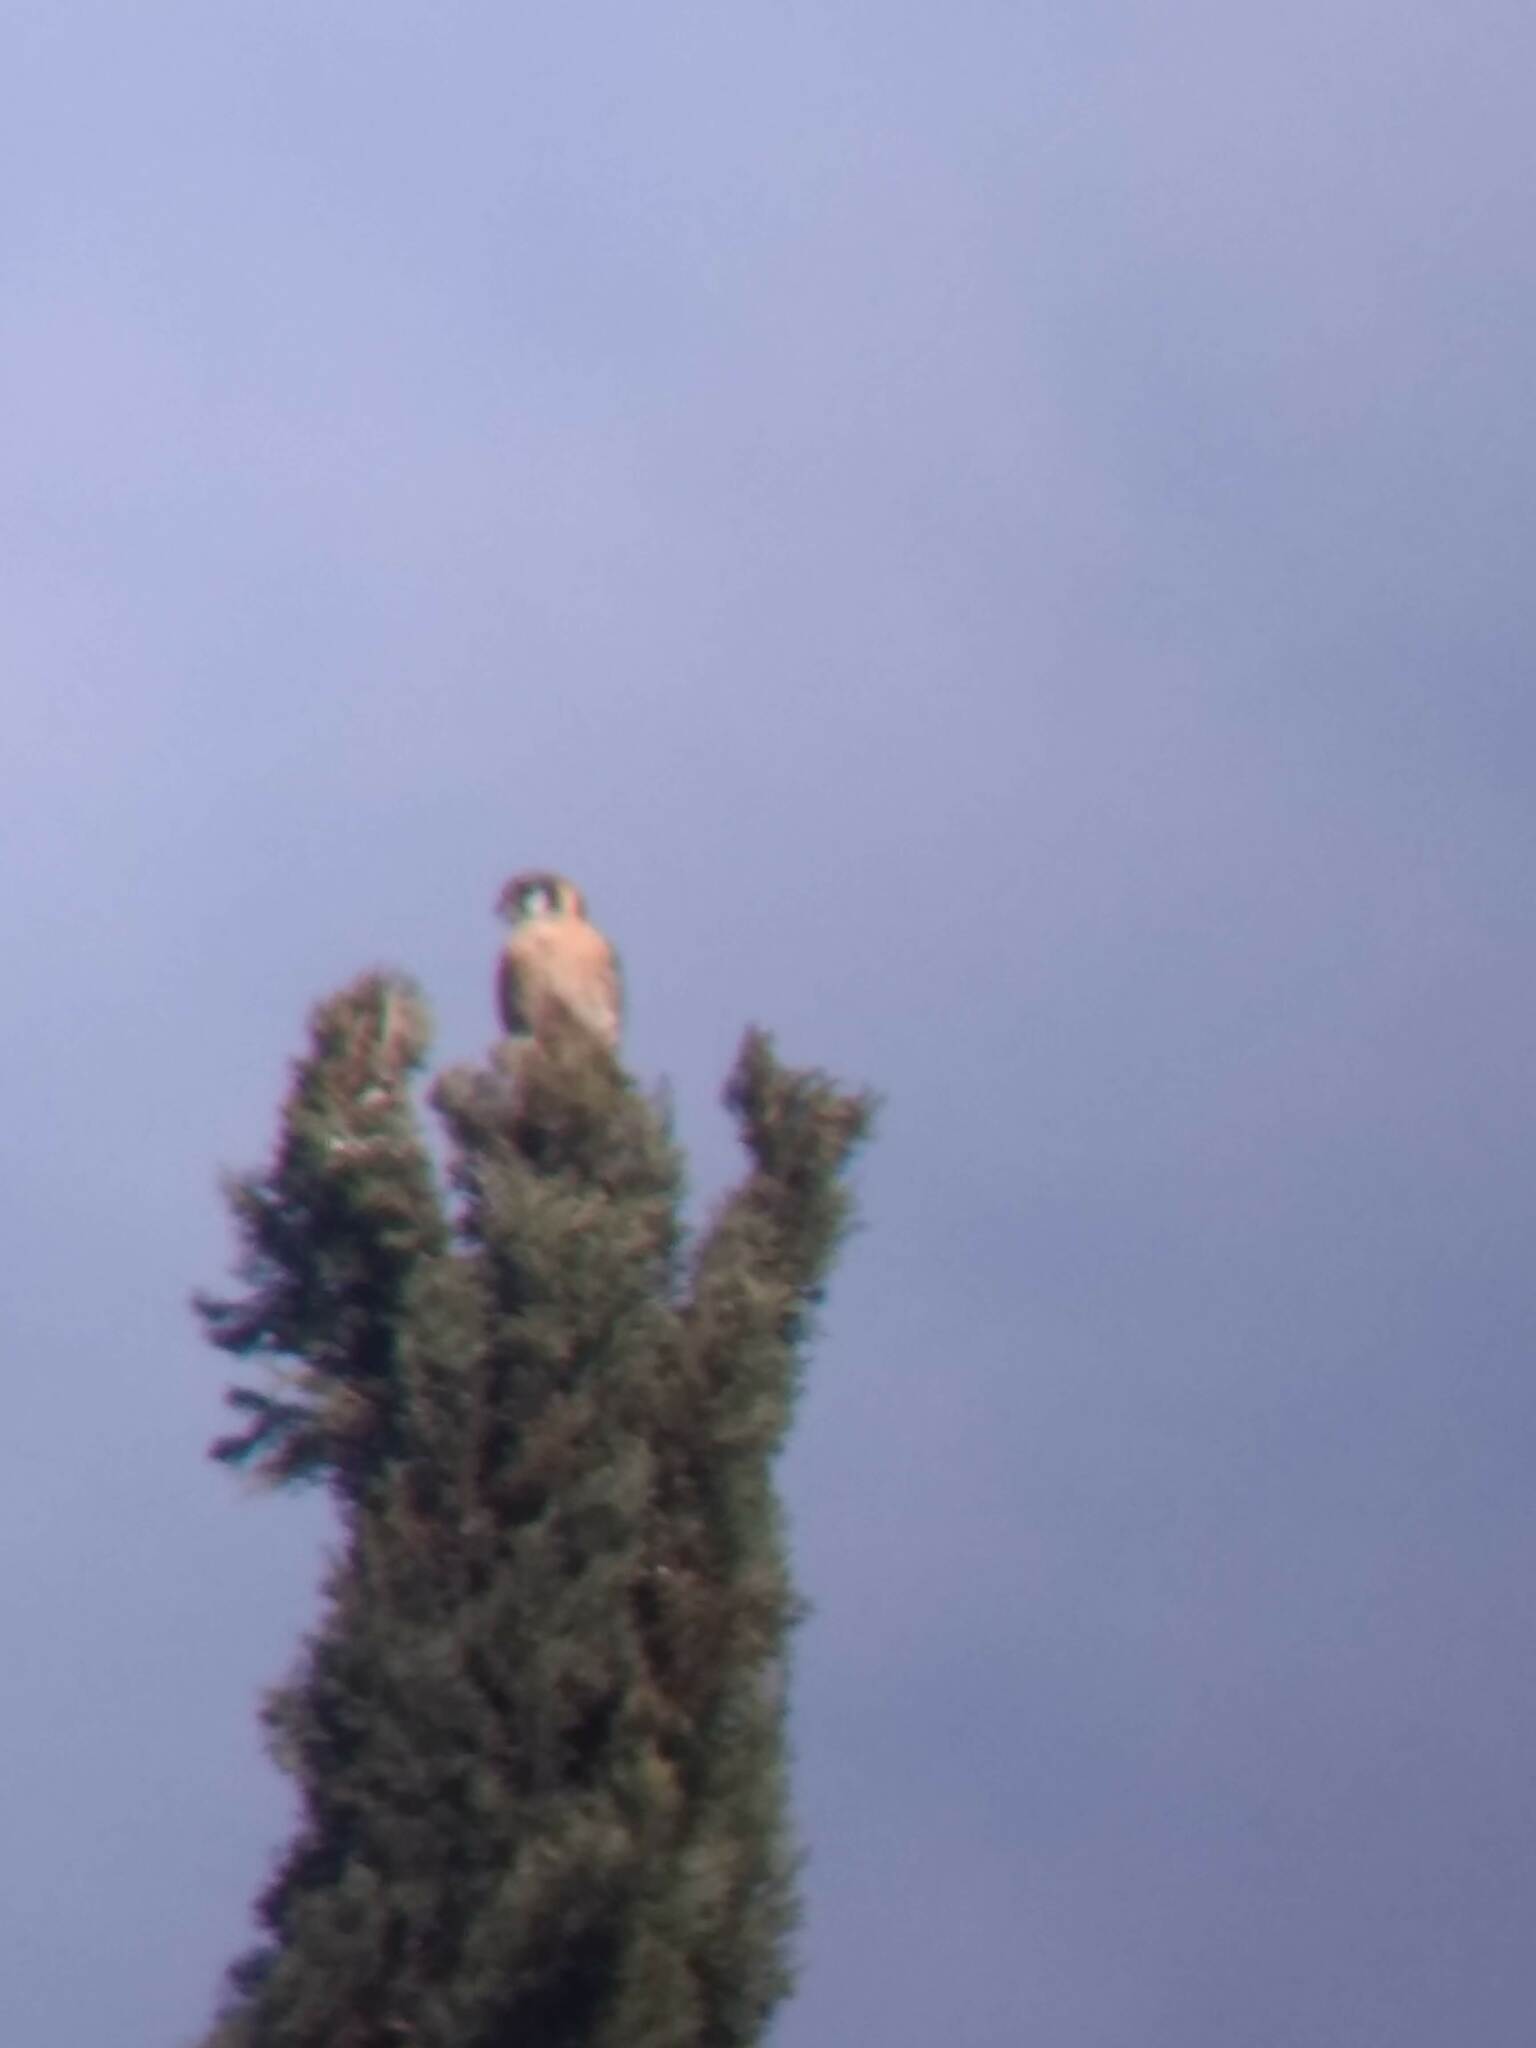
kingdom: Animalia
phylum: Chordata
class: Aves
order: Falconiformes
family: Falconidae
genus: Falco
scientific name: Falco sparverius
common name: American kestrel
